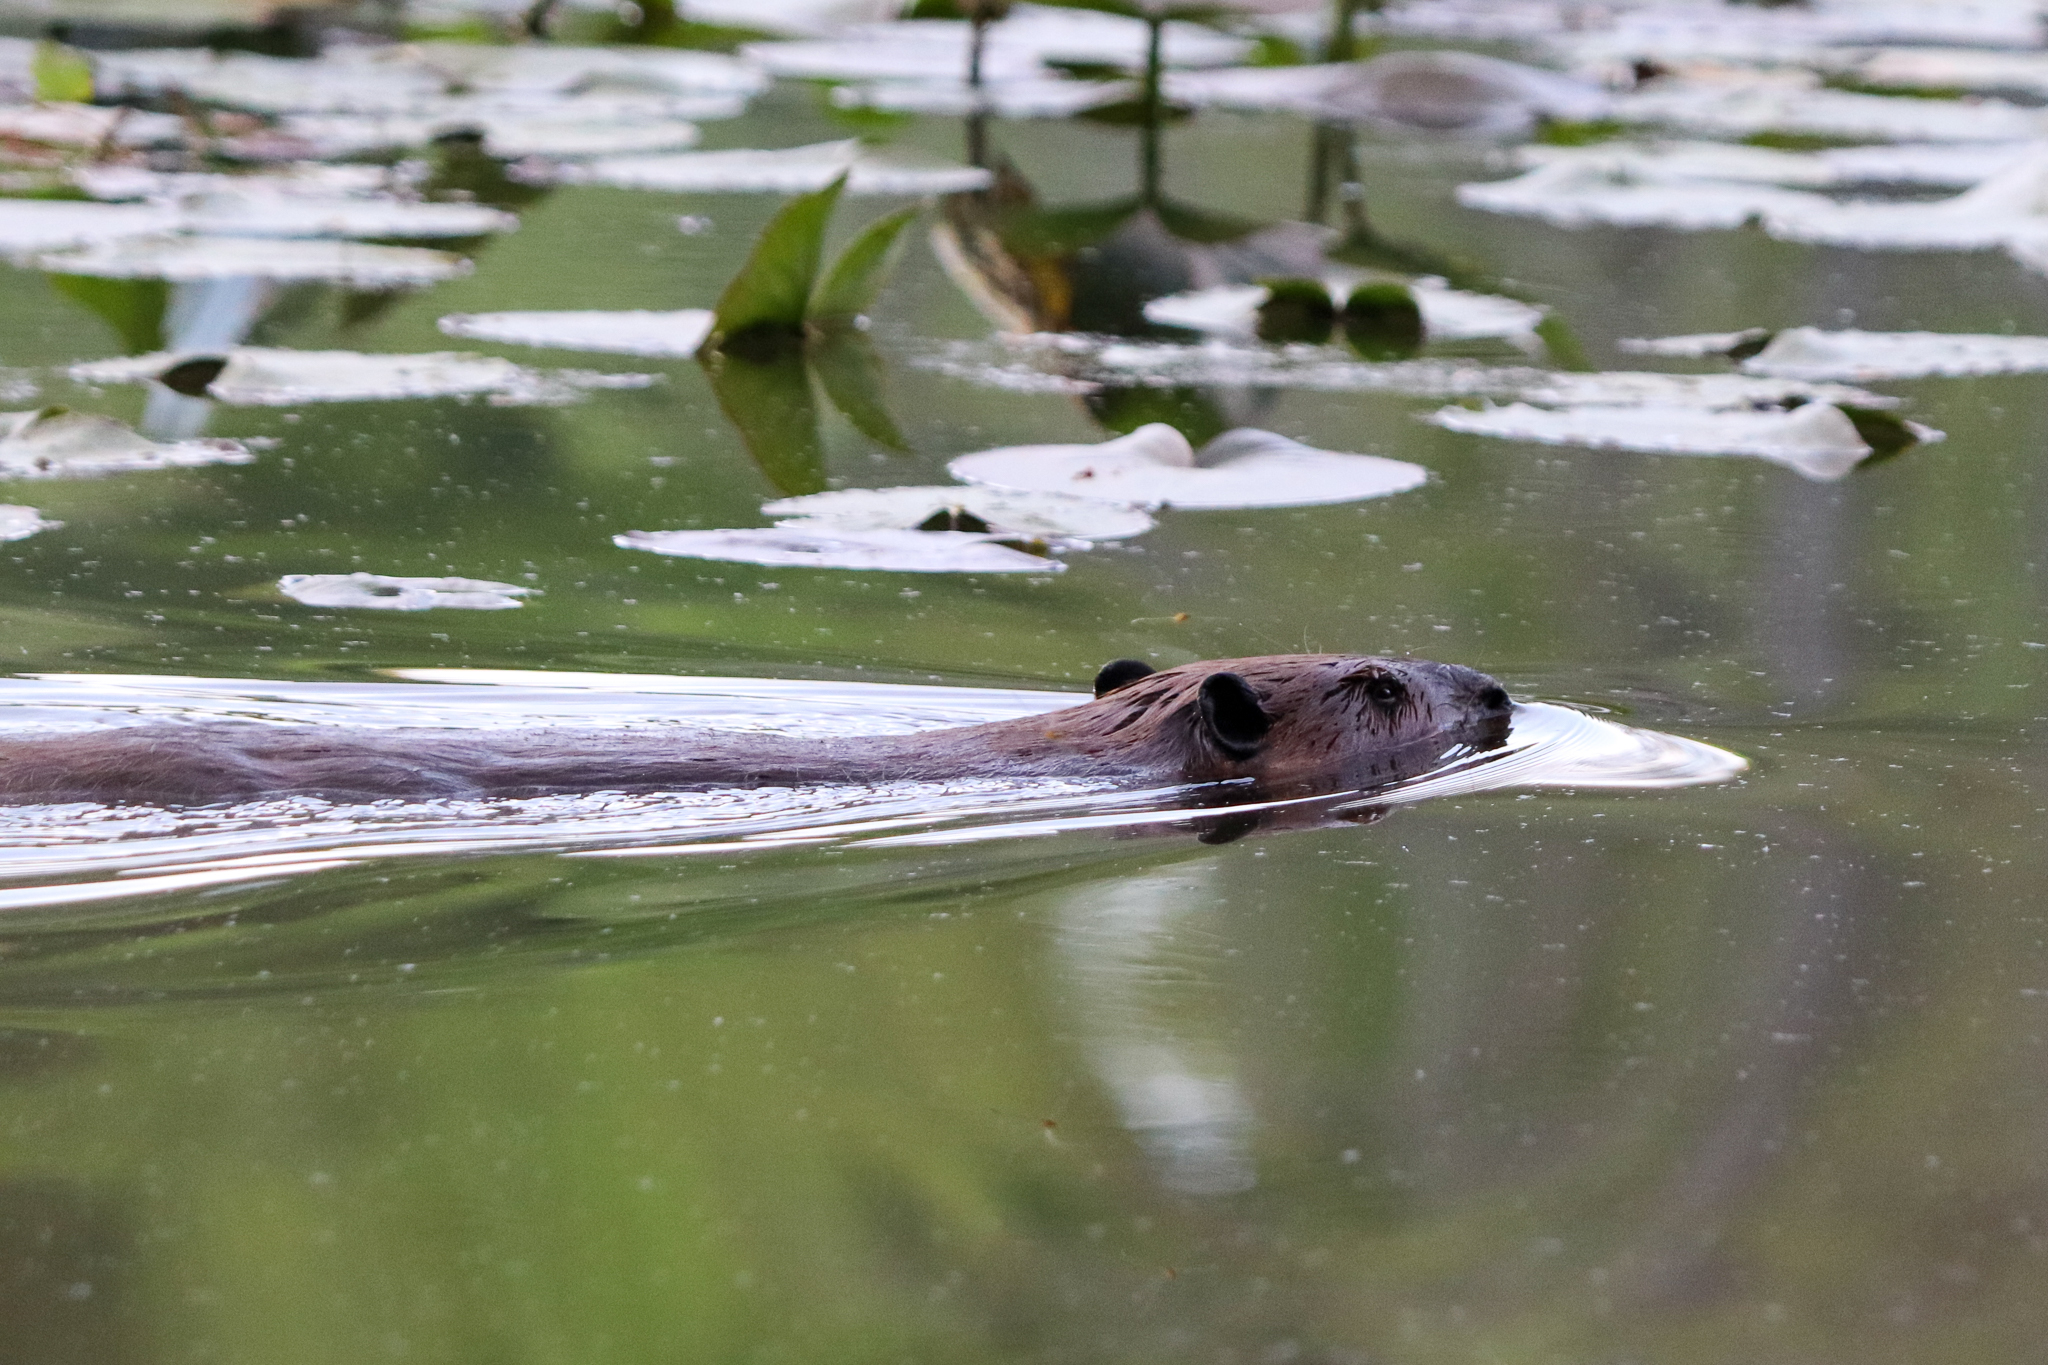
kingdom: Animalia
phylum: Chordata
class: Mammalia
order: Rodentia
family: Castoridae
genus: Castor
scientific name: Castor canadensis
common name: American beaver
